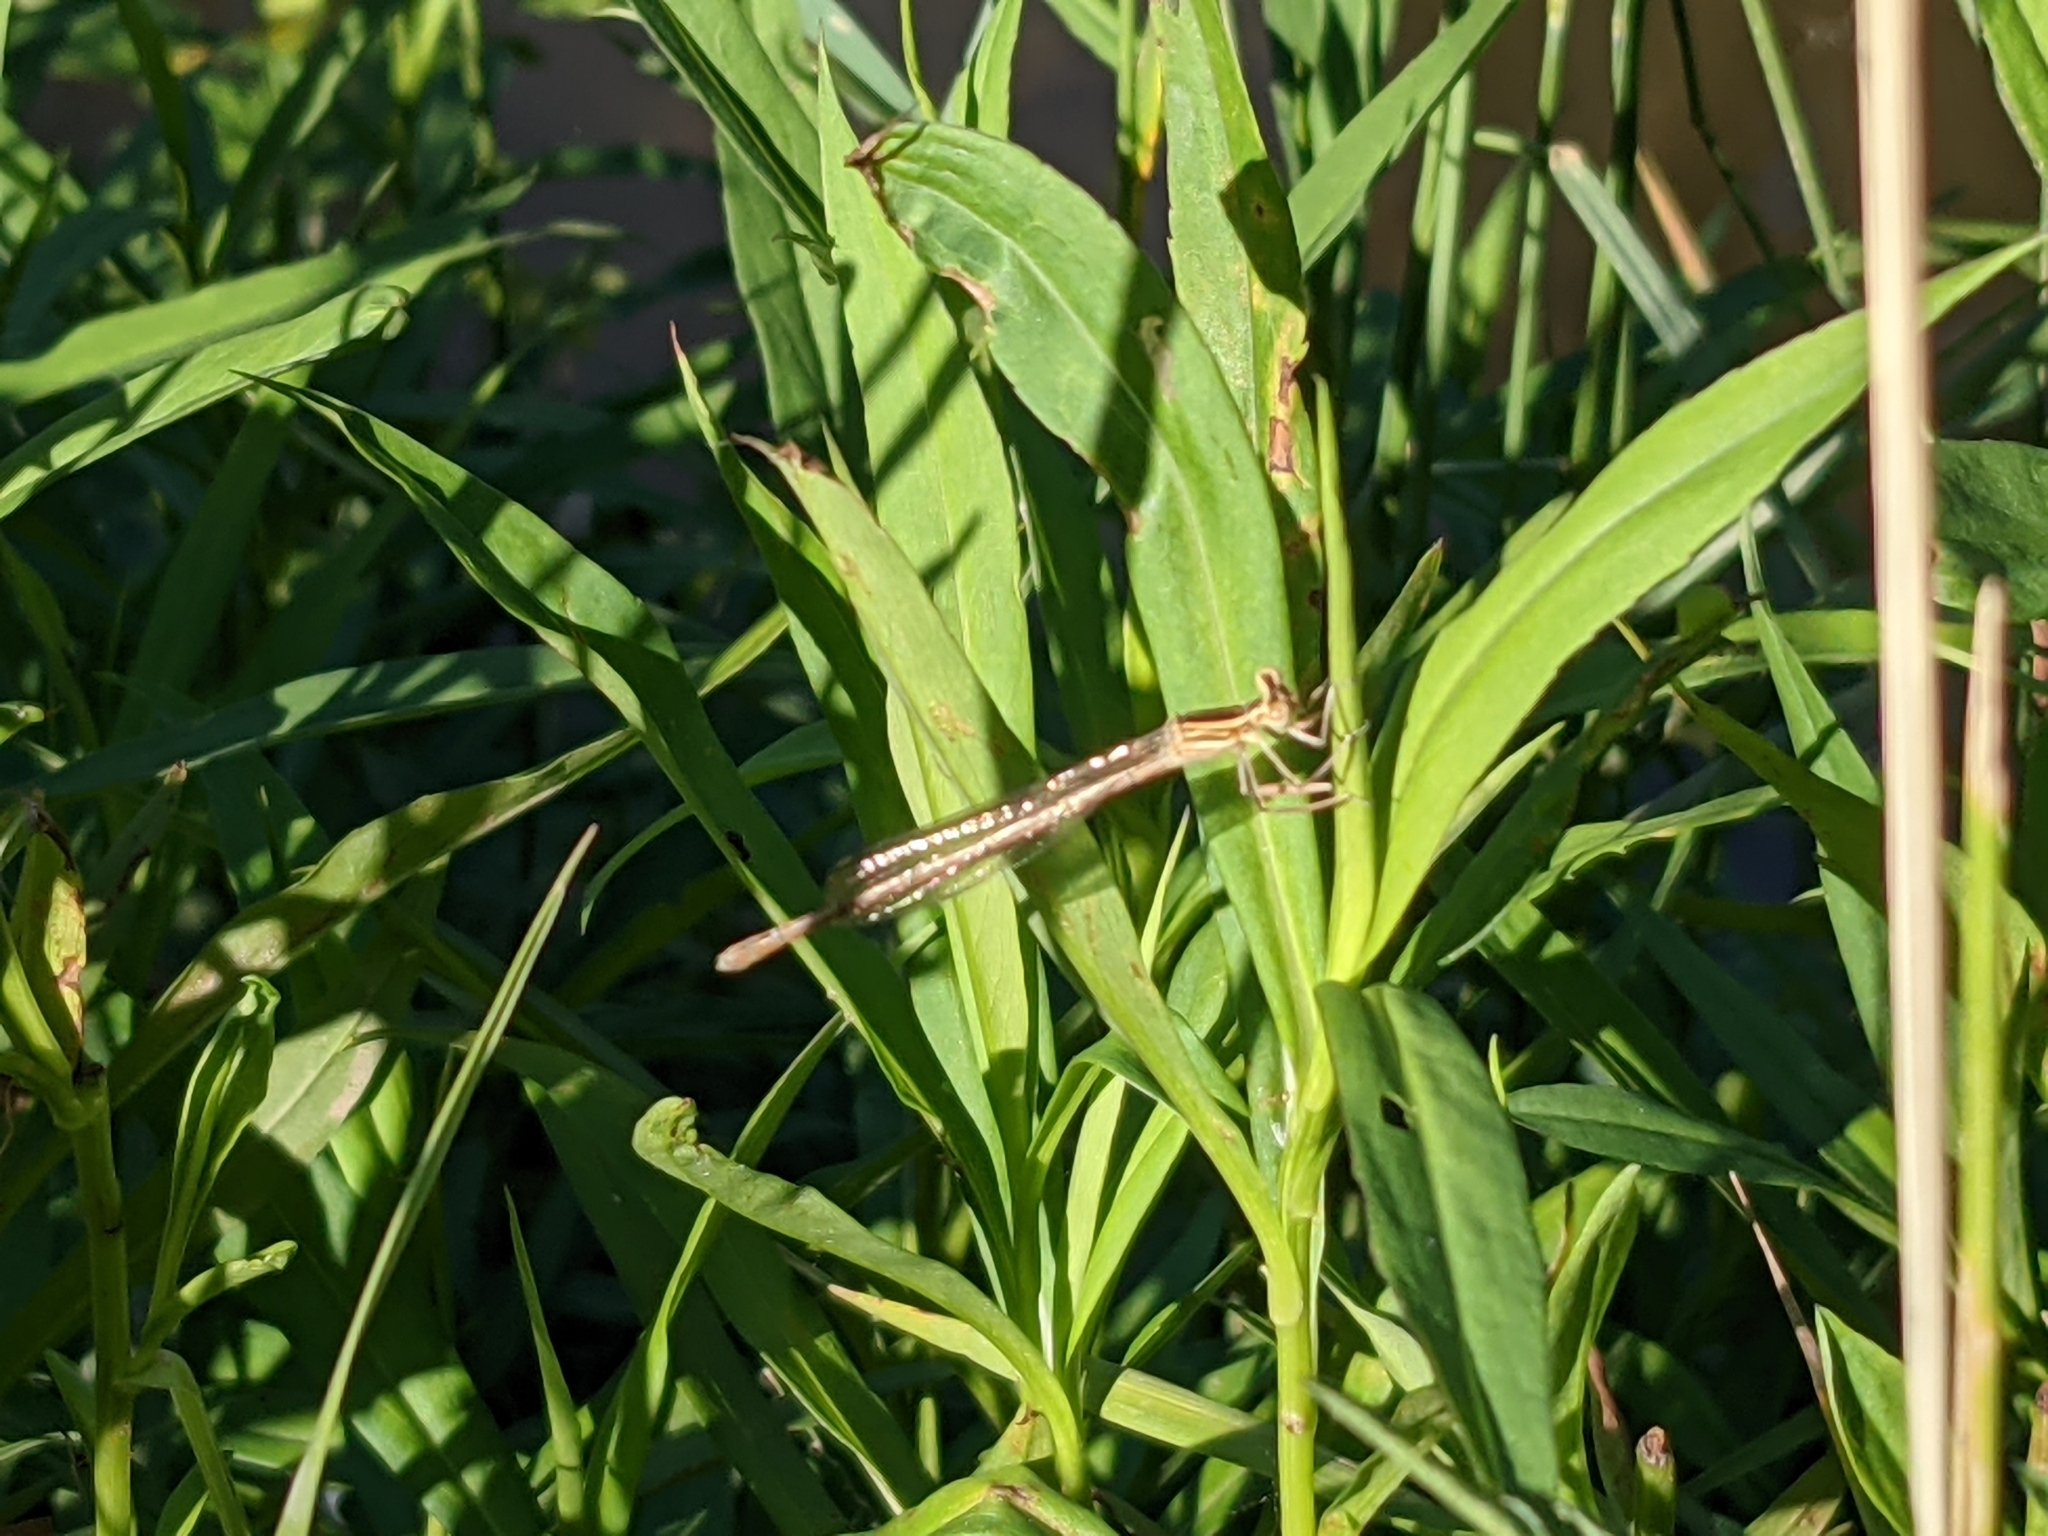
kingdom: Animalia
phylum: Arthropoda
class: Insecta
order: Odonata
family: Platycnemididae
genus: Platycnemis
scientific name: Platycnemis pennipes
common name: White-legged damselfly
